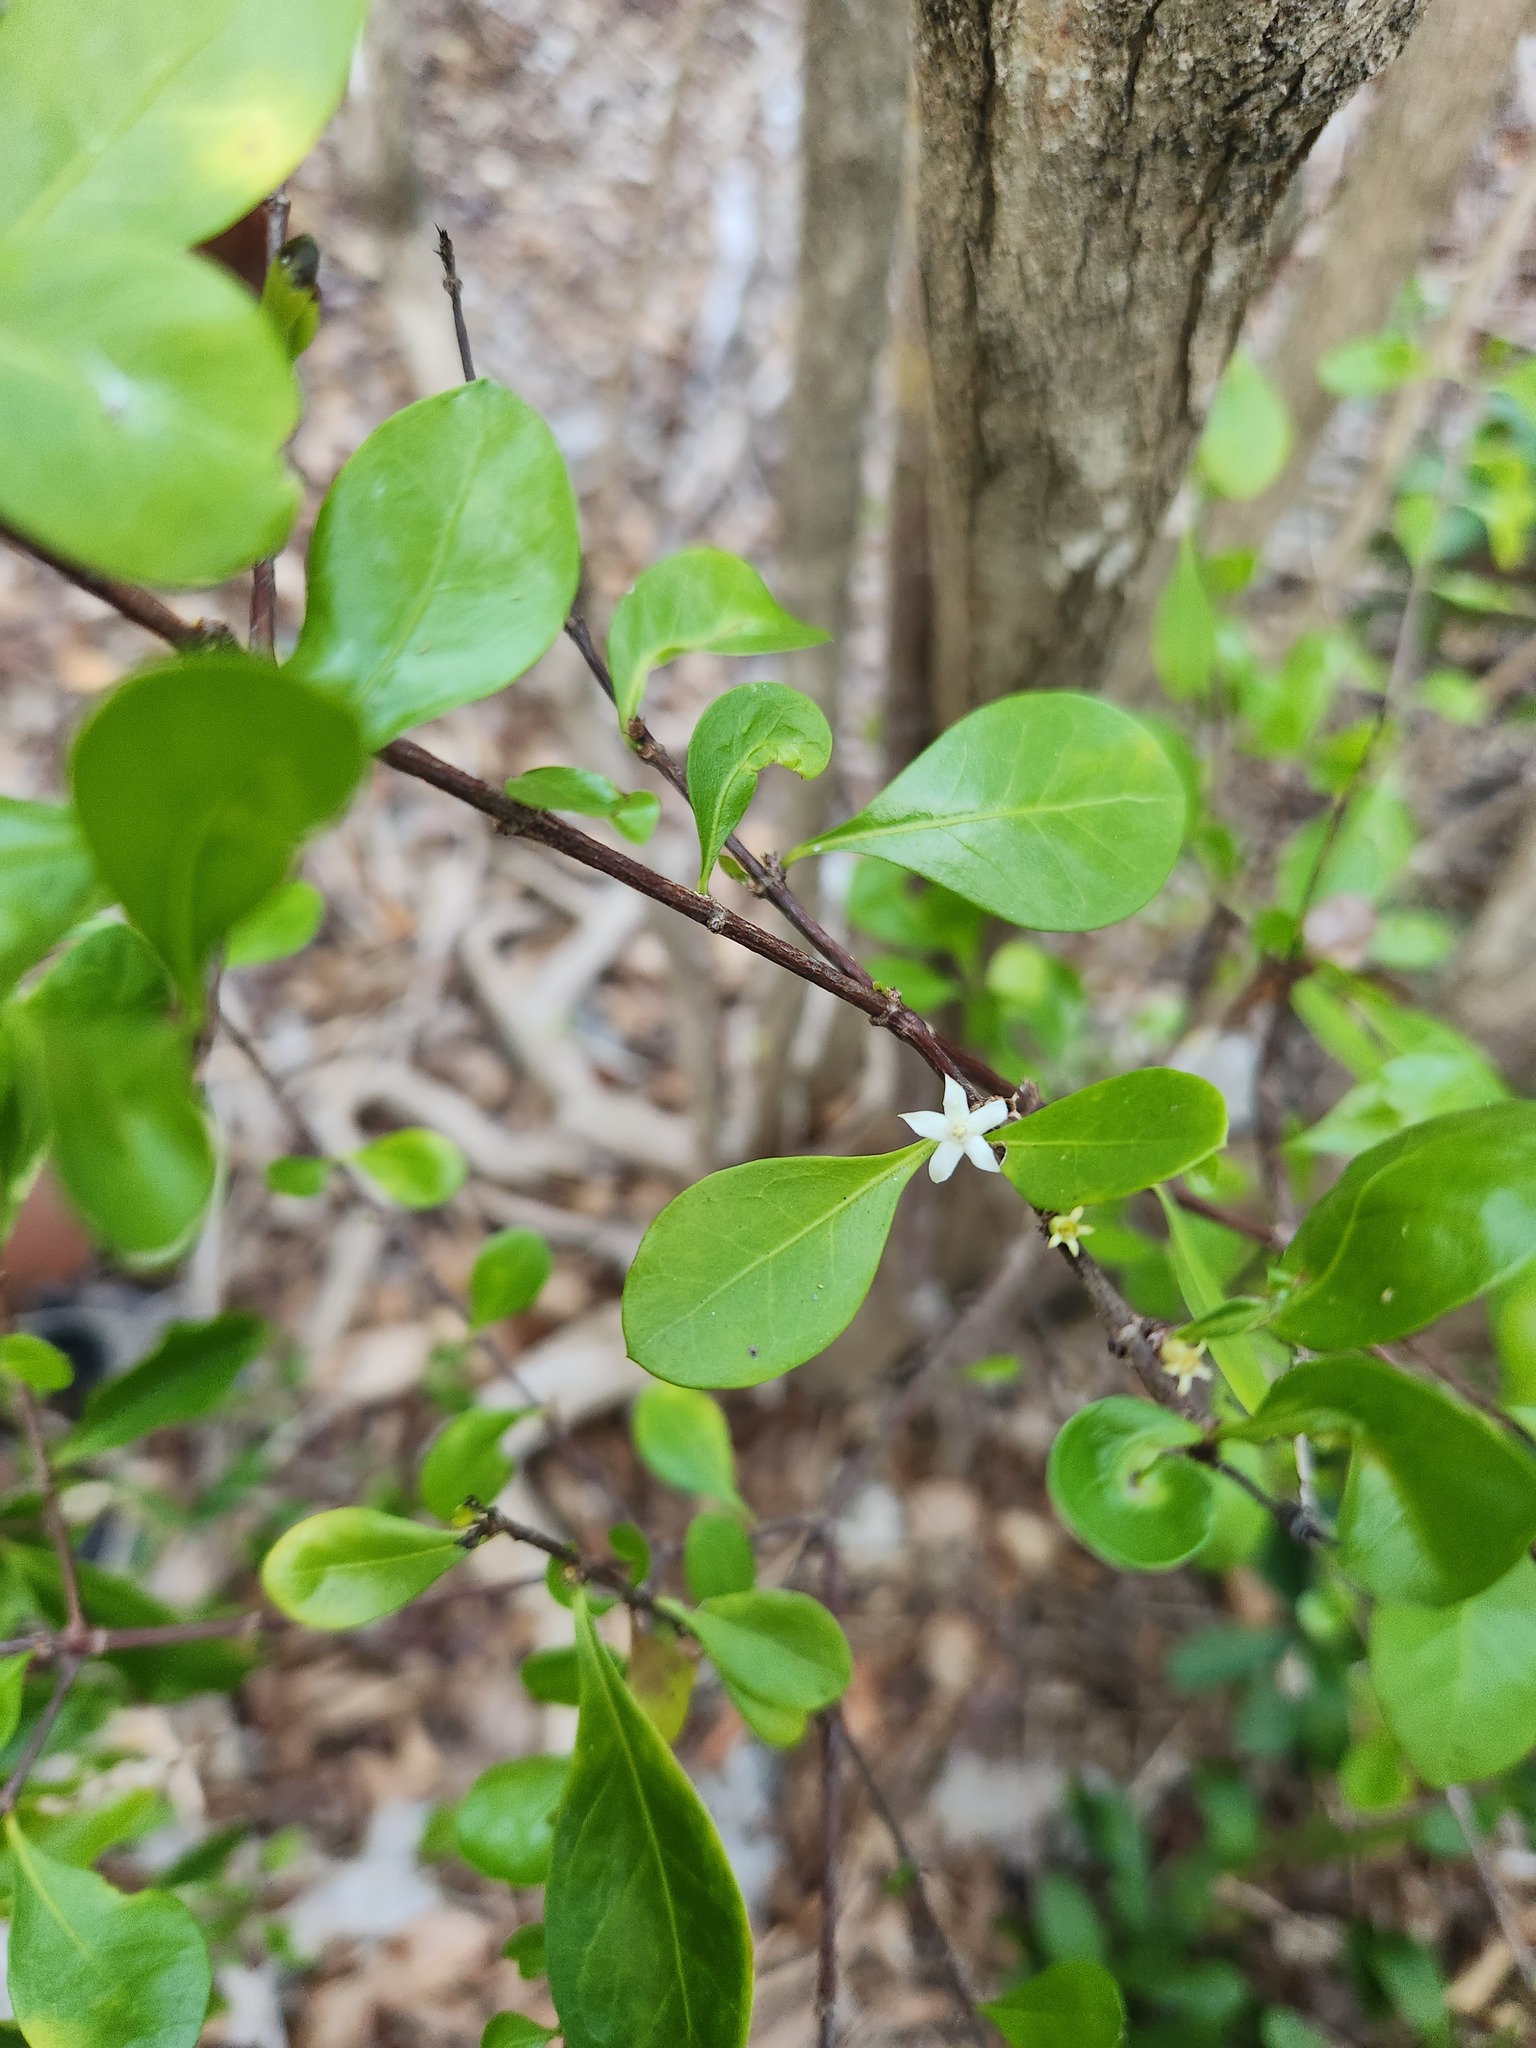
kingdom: Plantae
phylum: Tracheophyta
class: Magnoliopsida
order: Gentianales
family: Rubiaceae
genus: Randia
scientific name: Randia aculeata
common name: Inkberry
